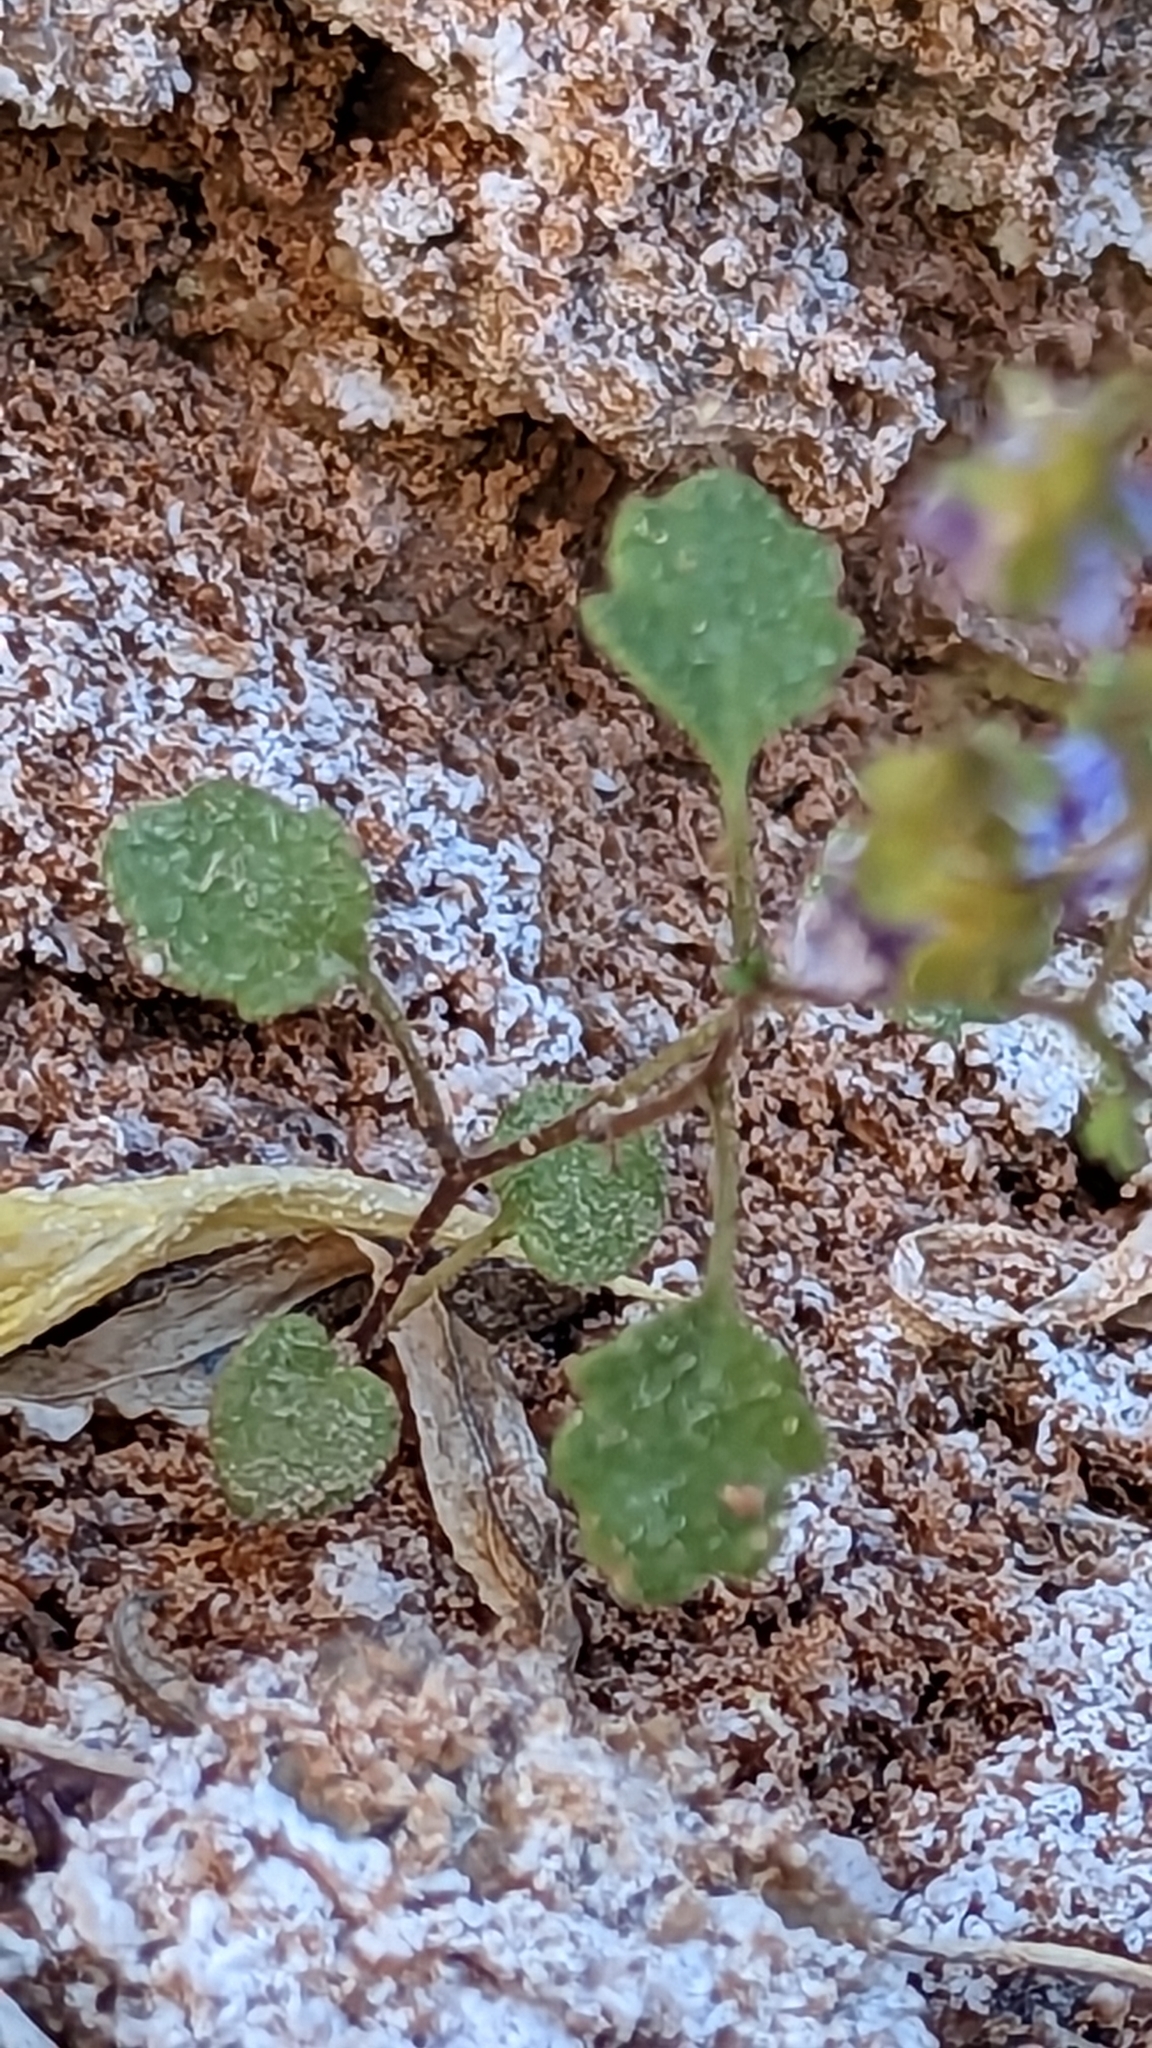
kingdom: Plantae
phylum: Tracheophyta
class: Magnoliopsida
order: Boraginales
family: Hydrophyllaceae
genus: Phacelia
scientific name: Phacelia pulchella
